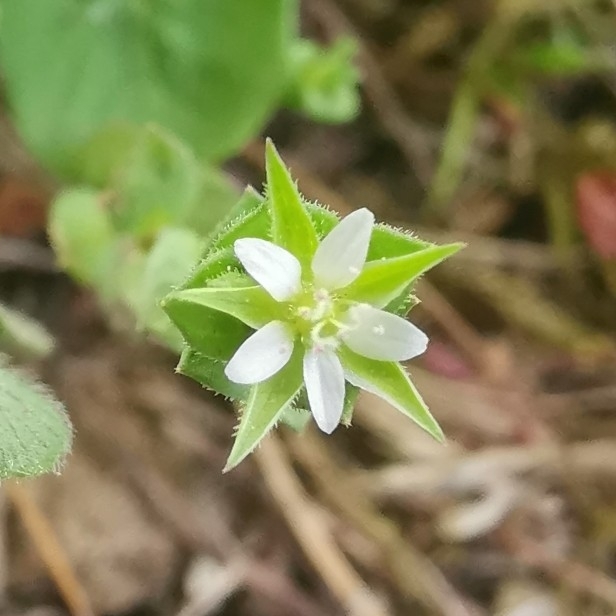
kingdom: Plantae
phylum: Tracheophyta
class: Magnoliopsida
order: Caryophyllales
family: Caryophyllaceae
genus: Arenaria
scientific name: Arenaria serpyllifolia
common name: Thyme-leaved sandwort
